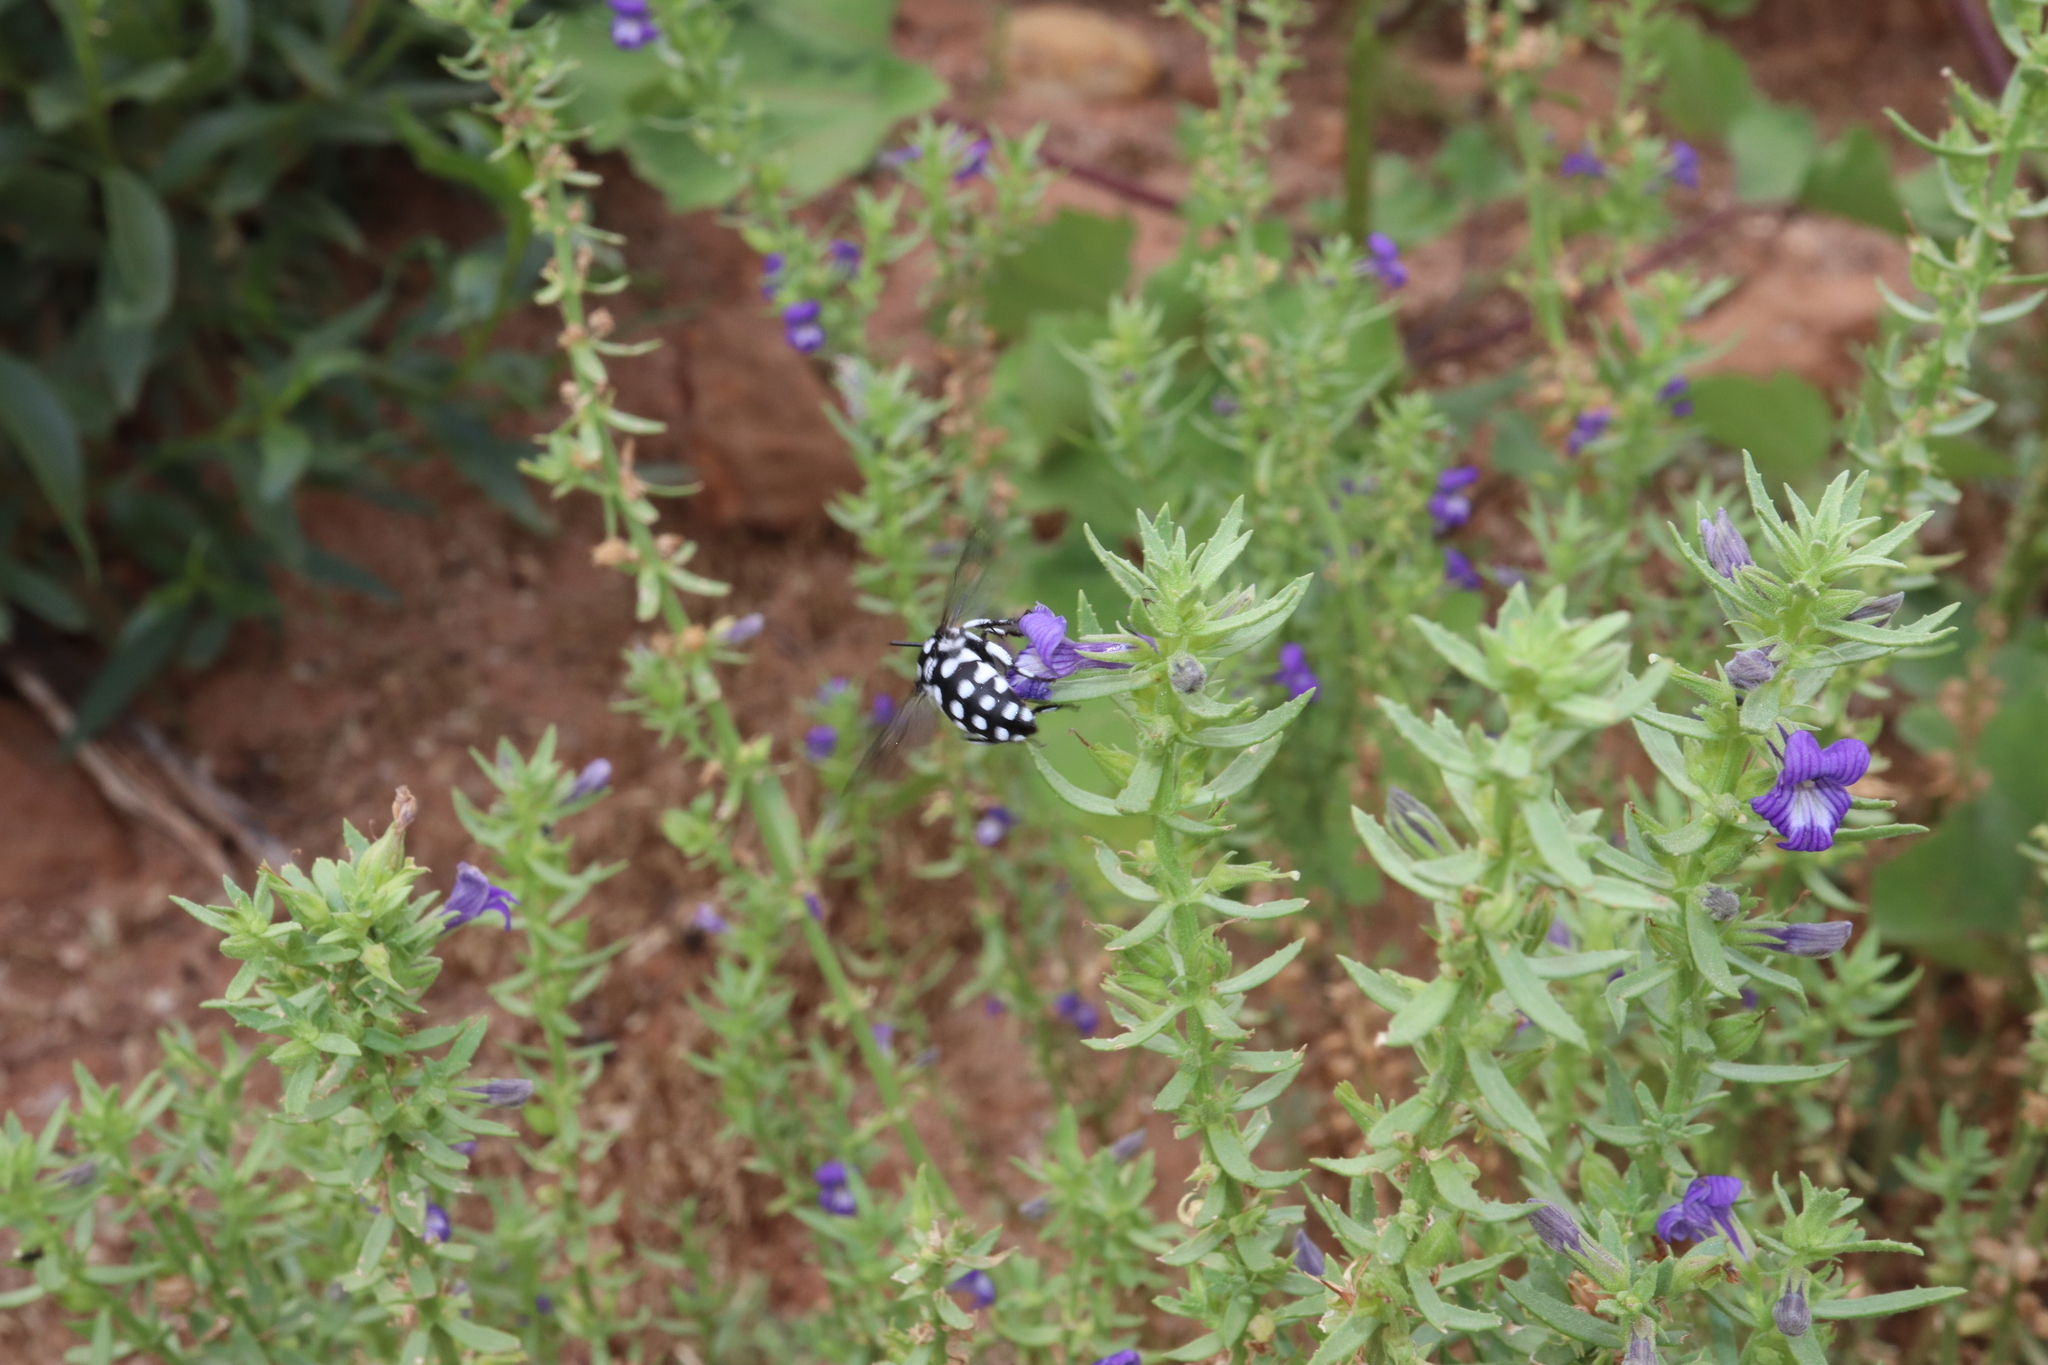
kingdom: Animalia
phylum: Arthropoda
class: Insecta
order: Hymenoptera
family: Apidae
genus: Thyreus
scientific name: Thyreus waroonensis
